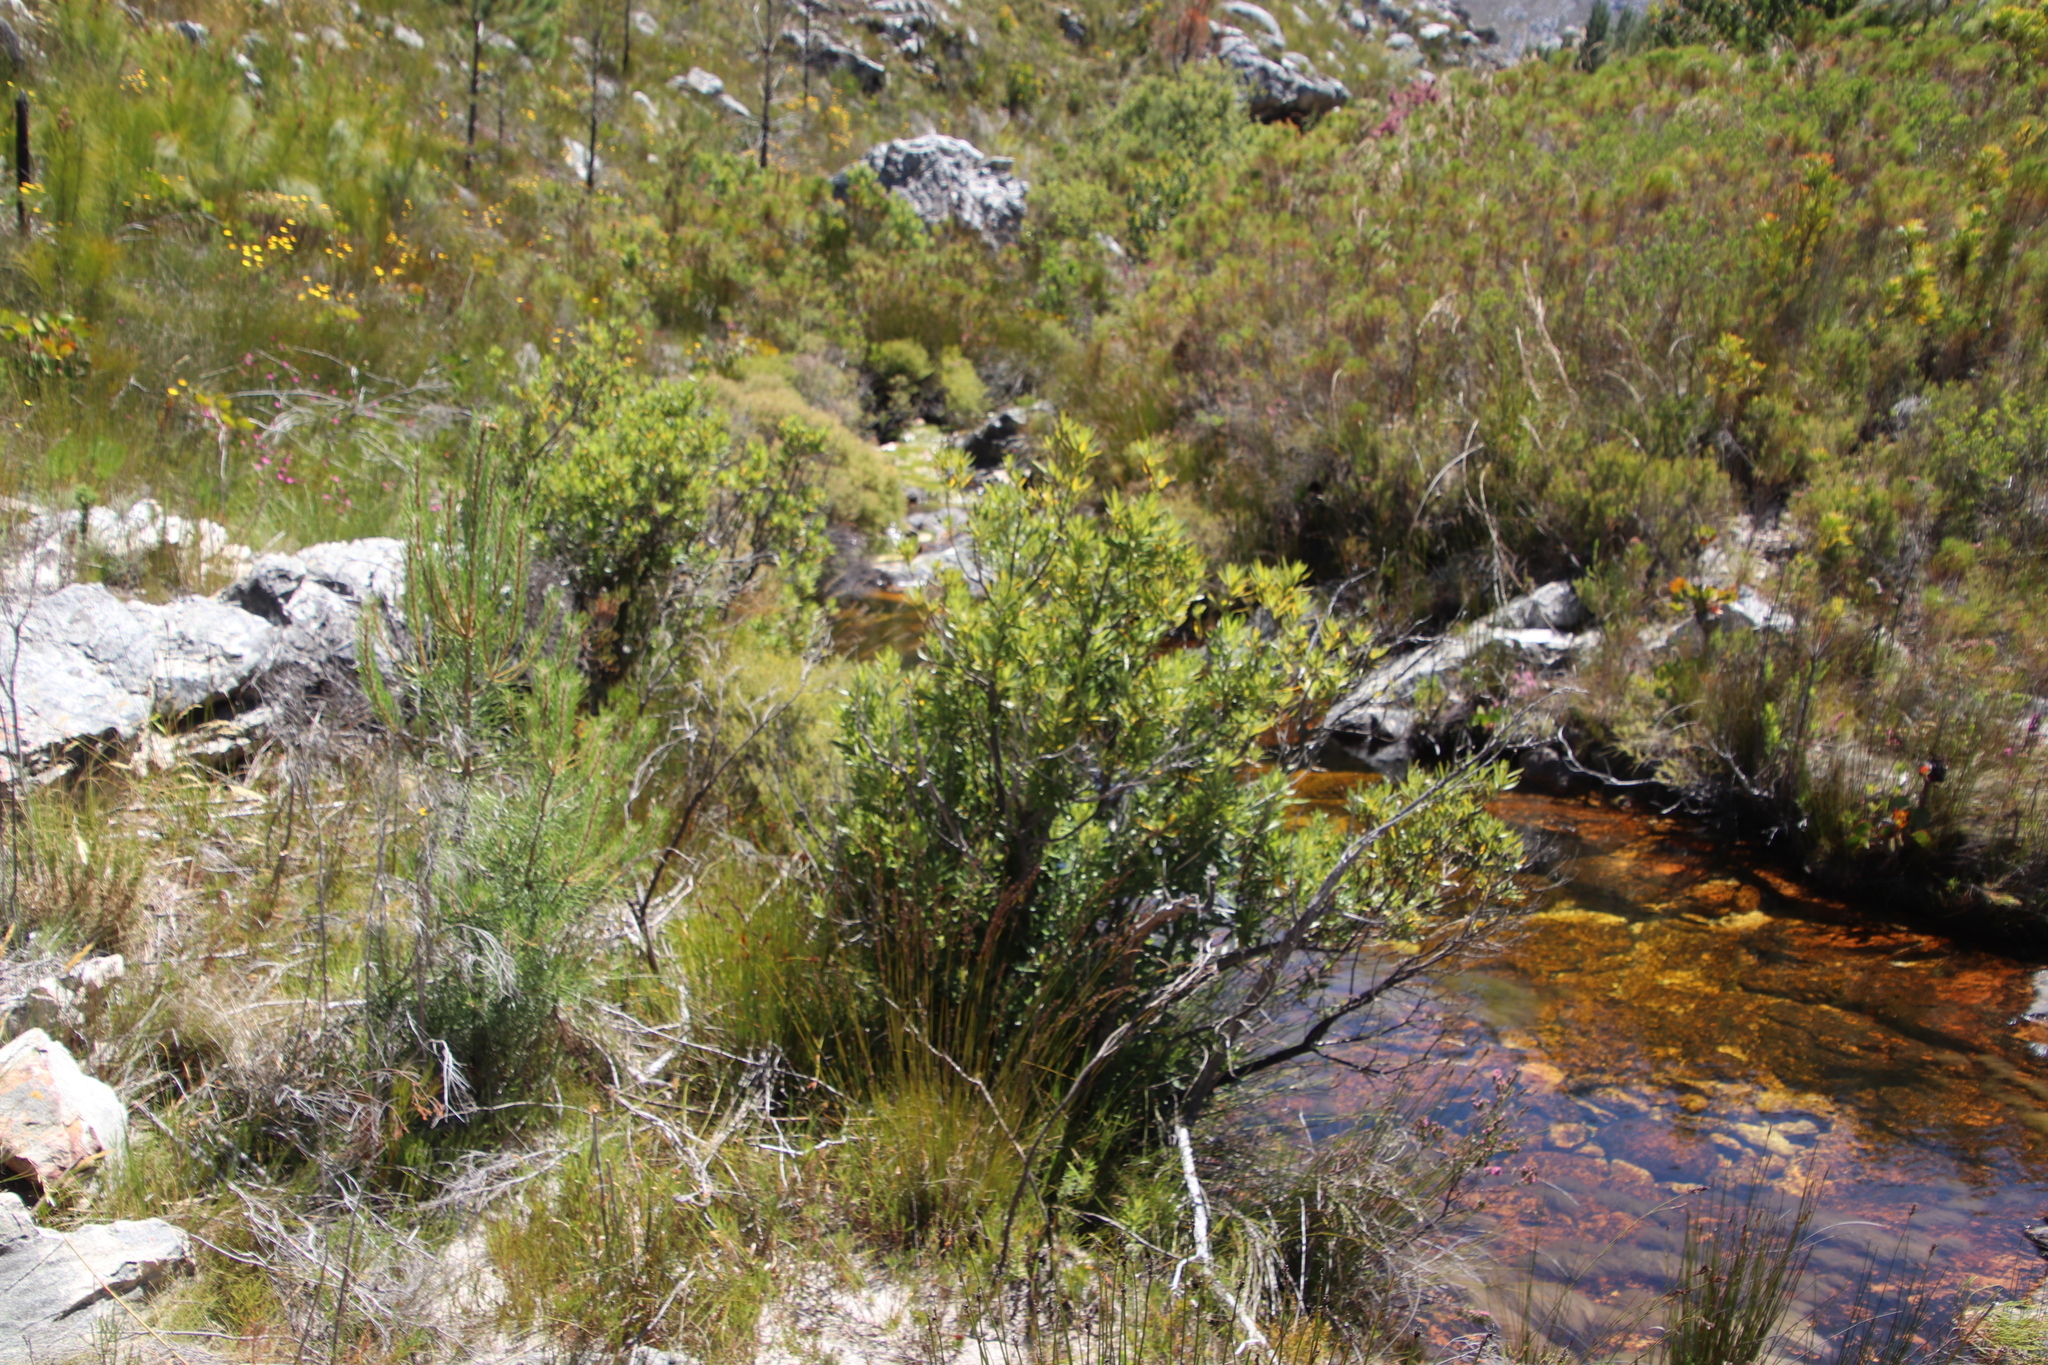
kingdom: Plantae
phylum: Tracheophyta
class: Magnoliopsida
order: Asterales
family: Asteraceae
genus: Brachylaena
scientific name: Brachylaena neriifolia
